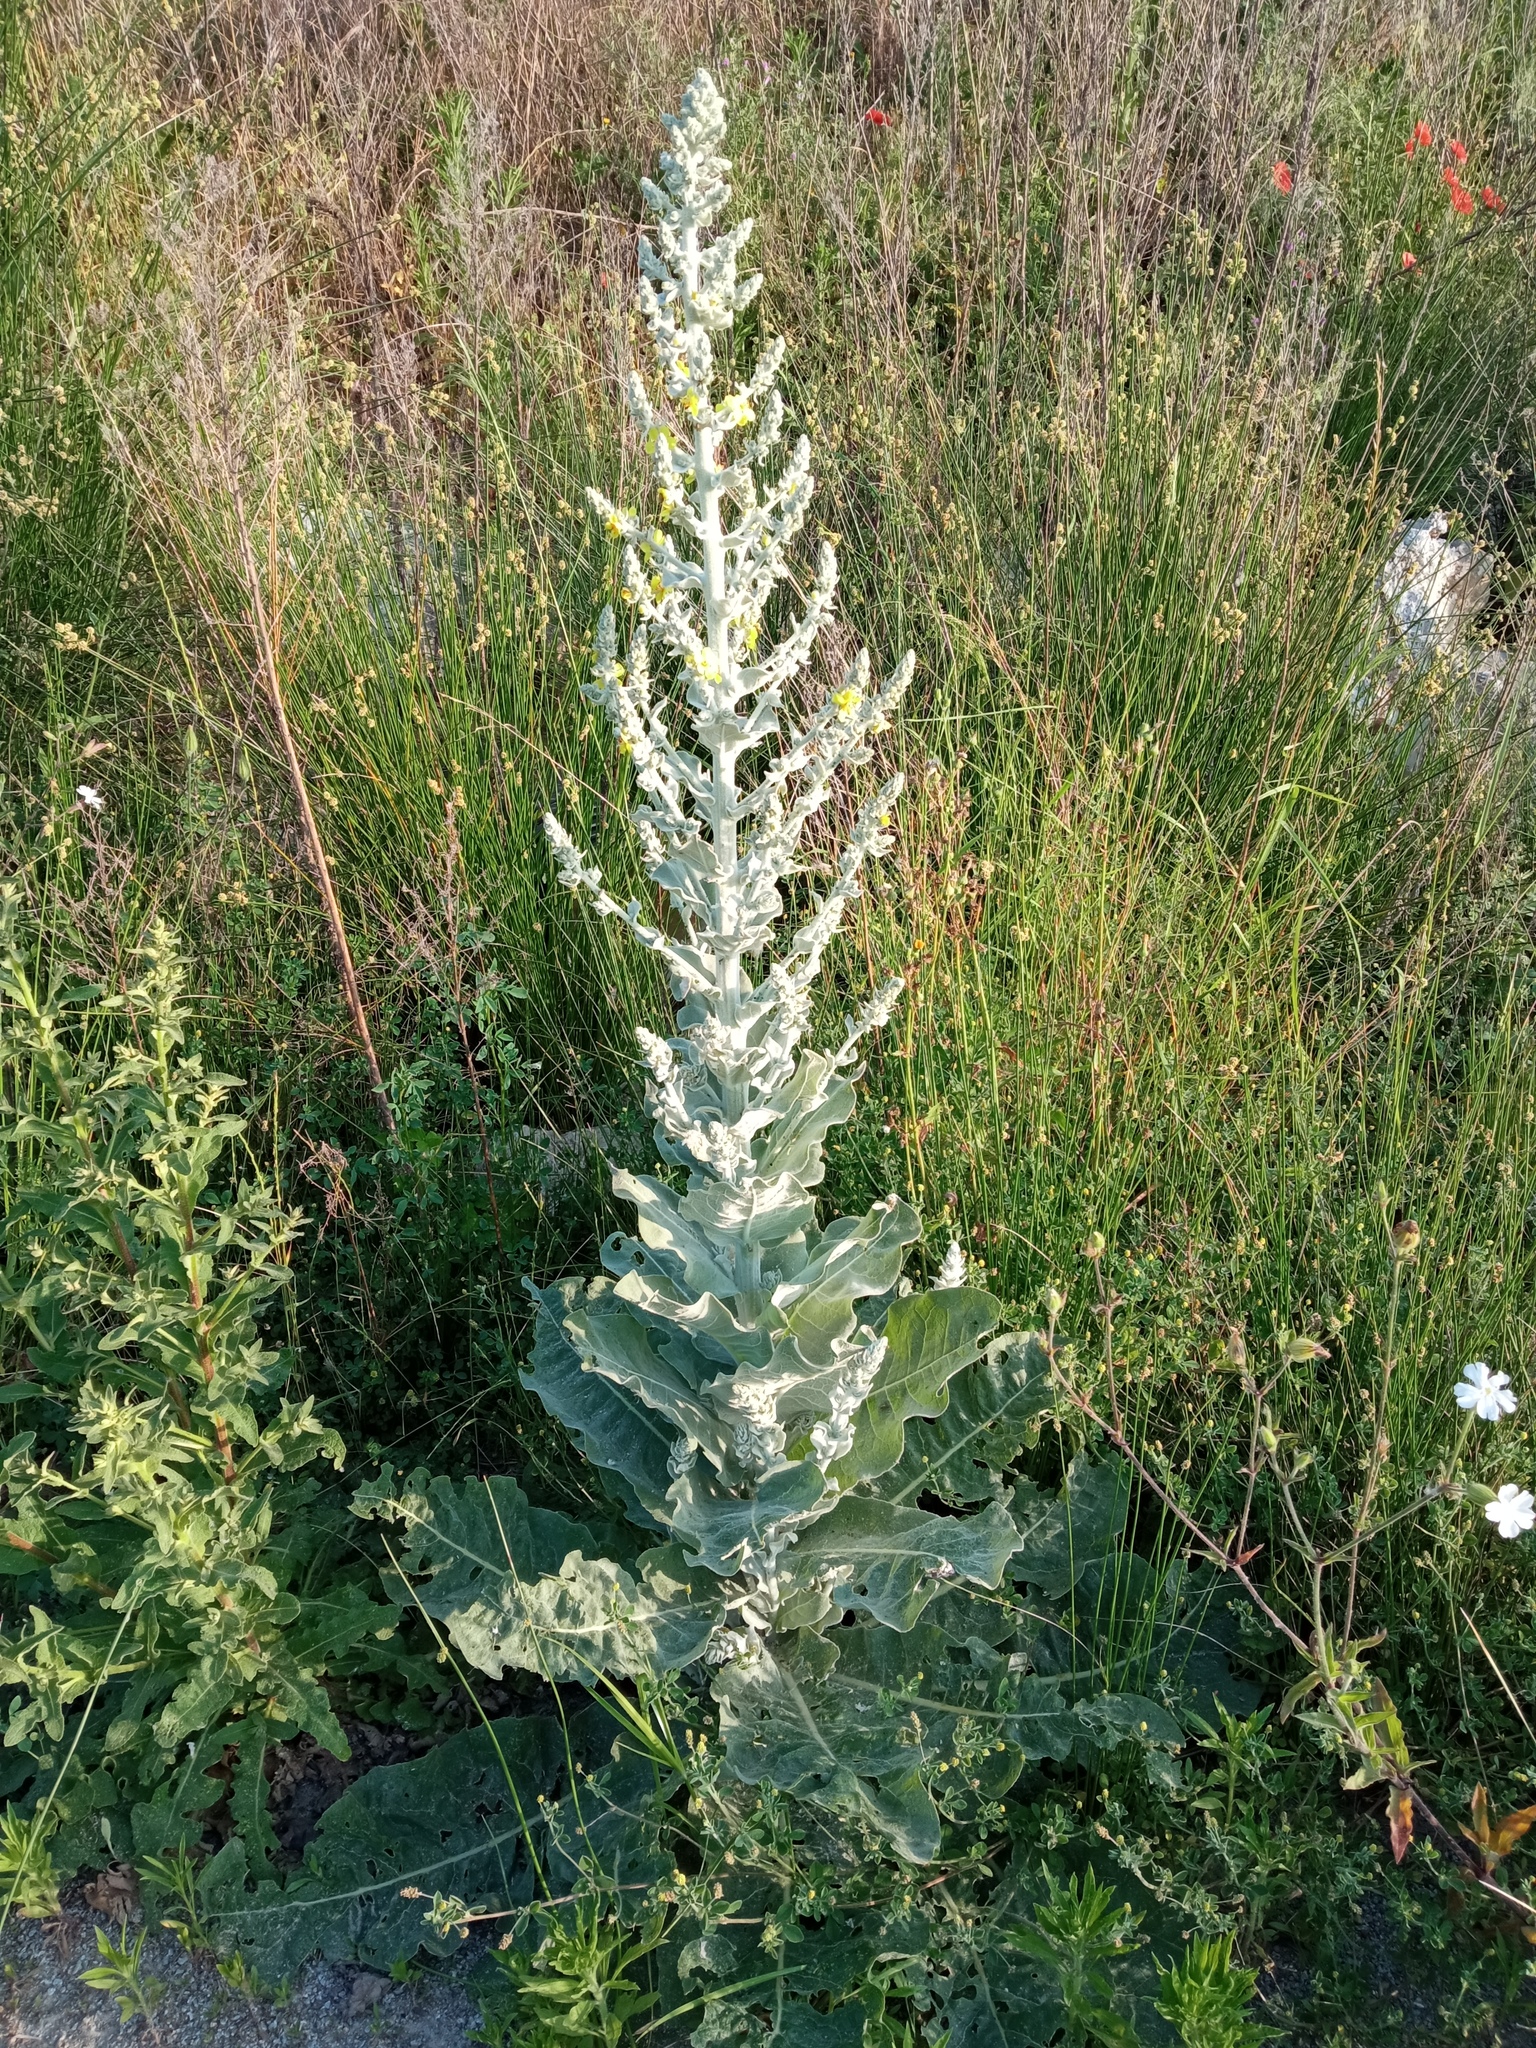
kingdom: Plantae
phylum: Tracheophyta
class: Magnoliopsida
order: Lamiales
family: Scrophulariaceae
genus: Verbascum
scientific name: Verbascum pulverulentum
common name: Broad-leaf mullein
